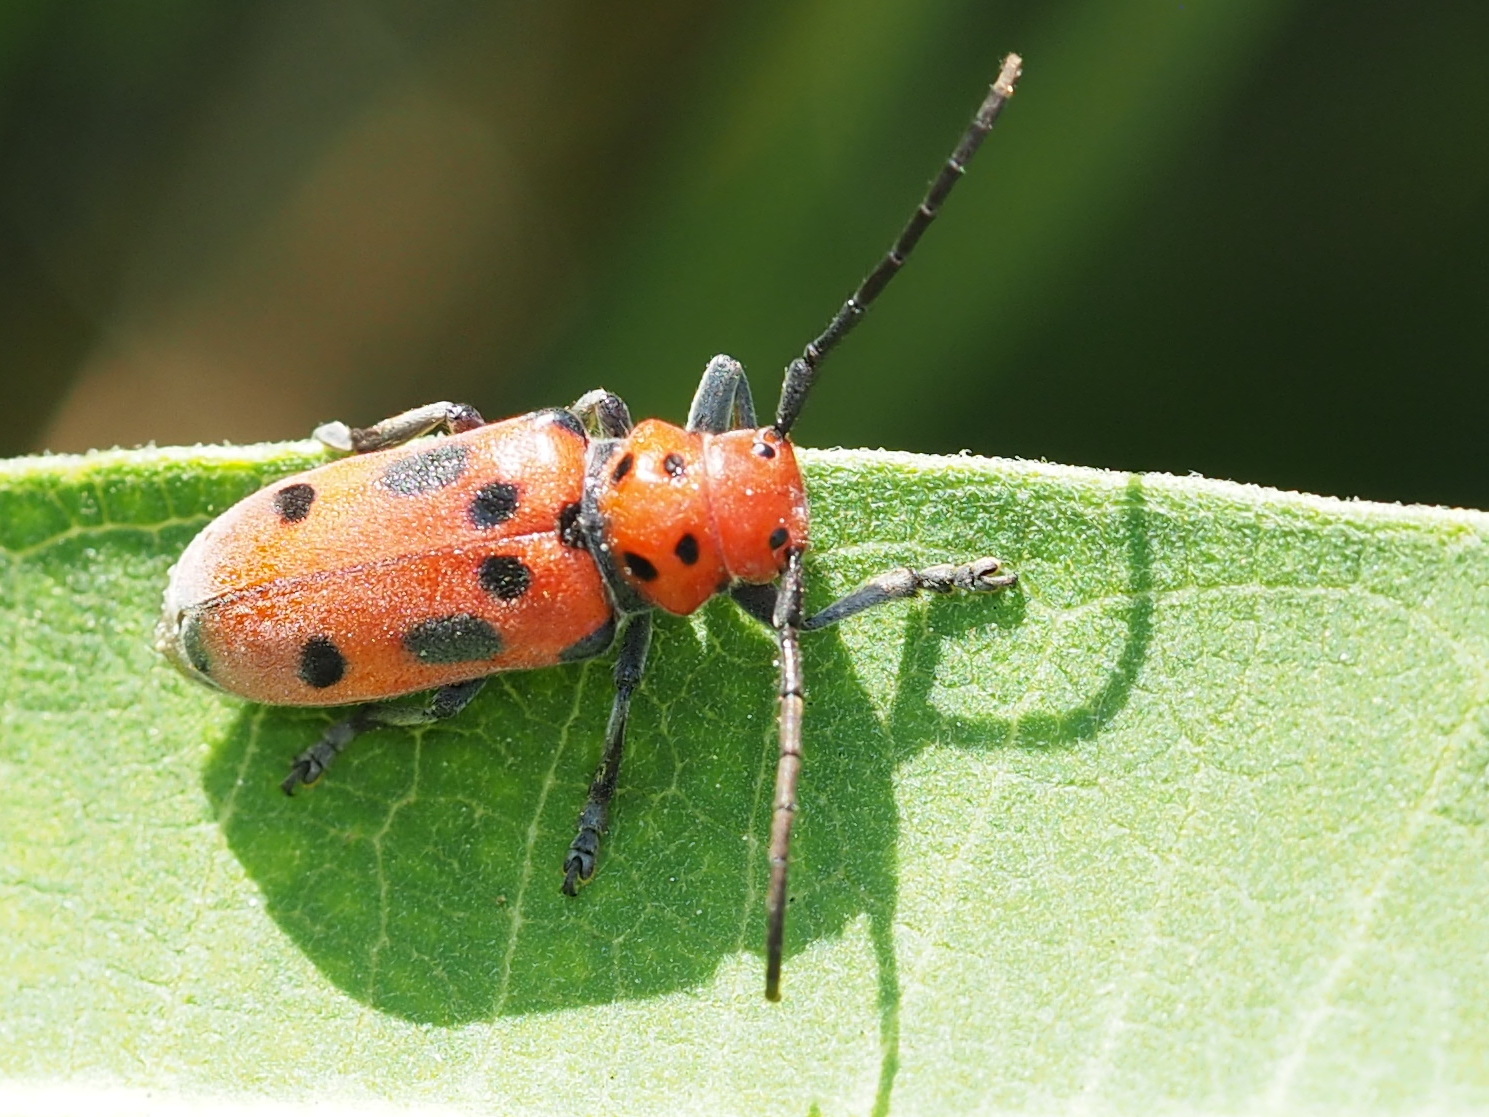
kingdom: Animalia
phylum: Arthropoda
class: Insecta
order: Coleoptera
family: Cerambycidae
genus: Tetraopes
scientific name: Tetraopes tetrophthalmus
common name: Red milkweed beetle
